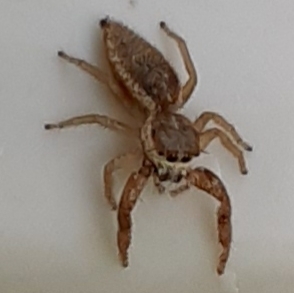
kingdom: Animalia
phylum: Arthropoda
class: Arachnida
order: Araneae
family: Salticidae
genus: Hentzia
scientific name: Hentzia palmarum
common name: Common hentz jumping spider
